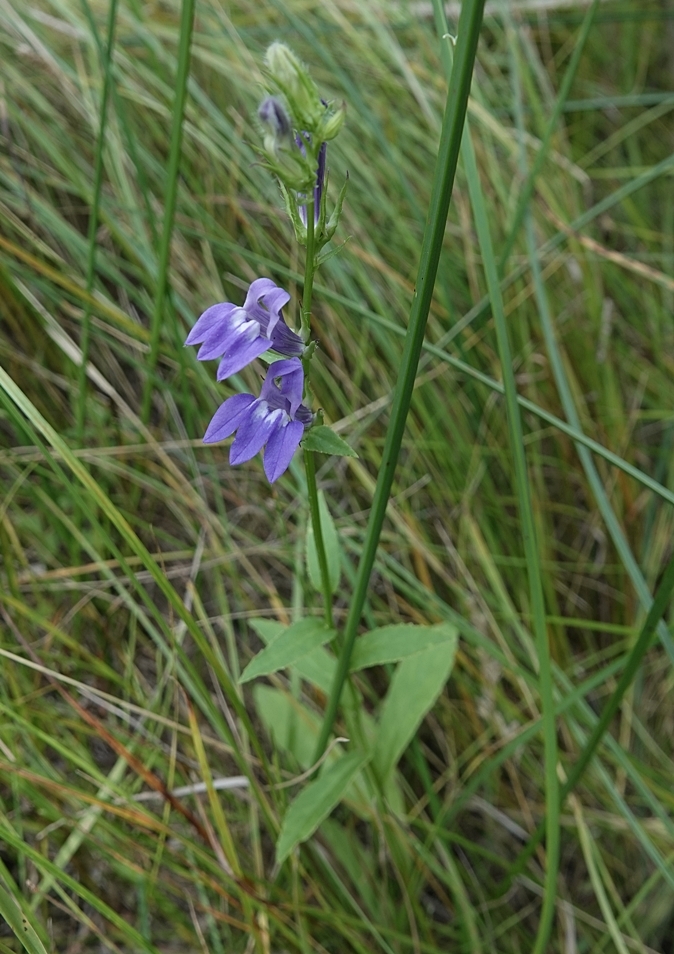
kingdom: Plantae
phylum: Tracheophyta
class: Magnoliopsida
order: Asterales
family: Campanulaceae
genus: Lobelia
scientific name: Lobelia siphilitica
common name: Great lobelia
